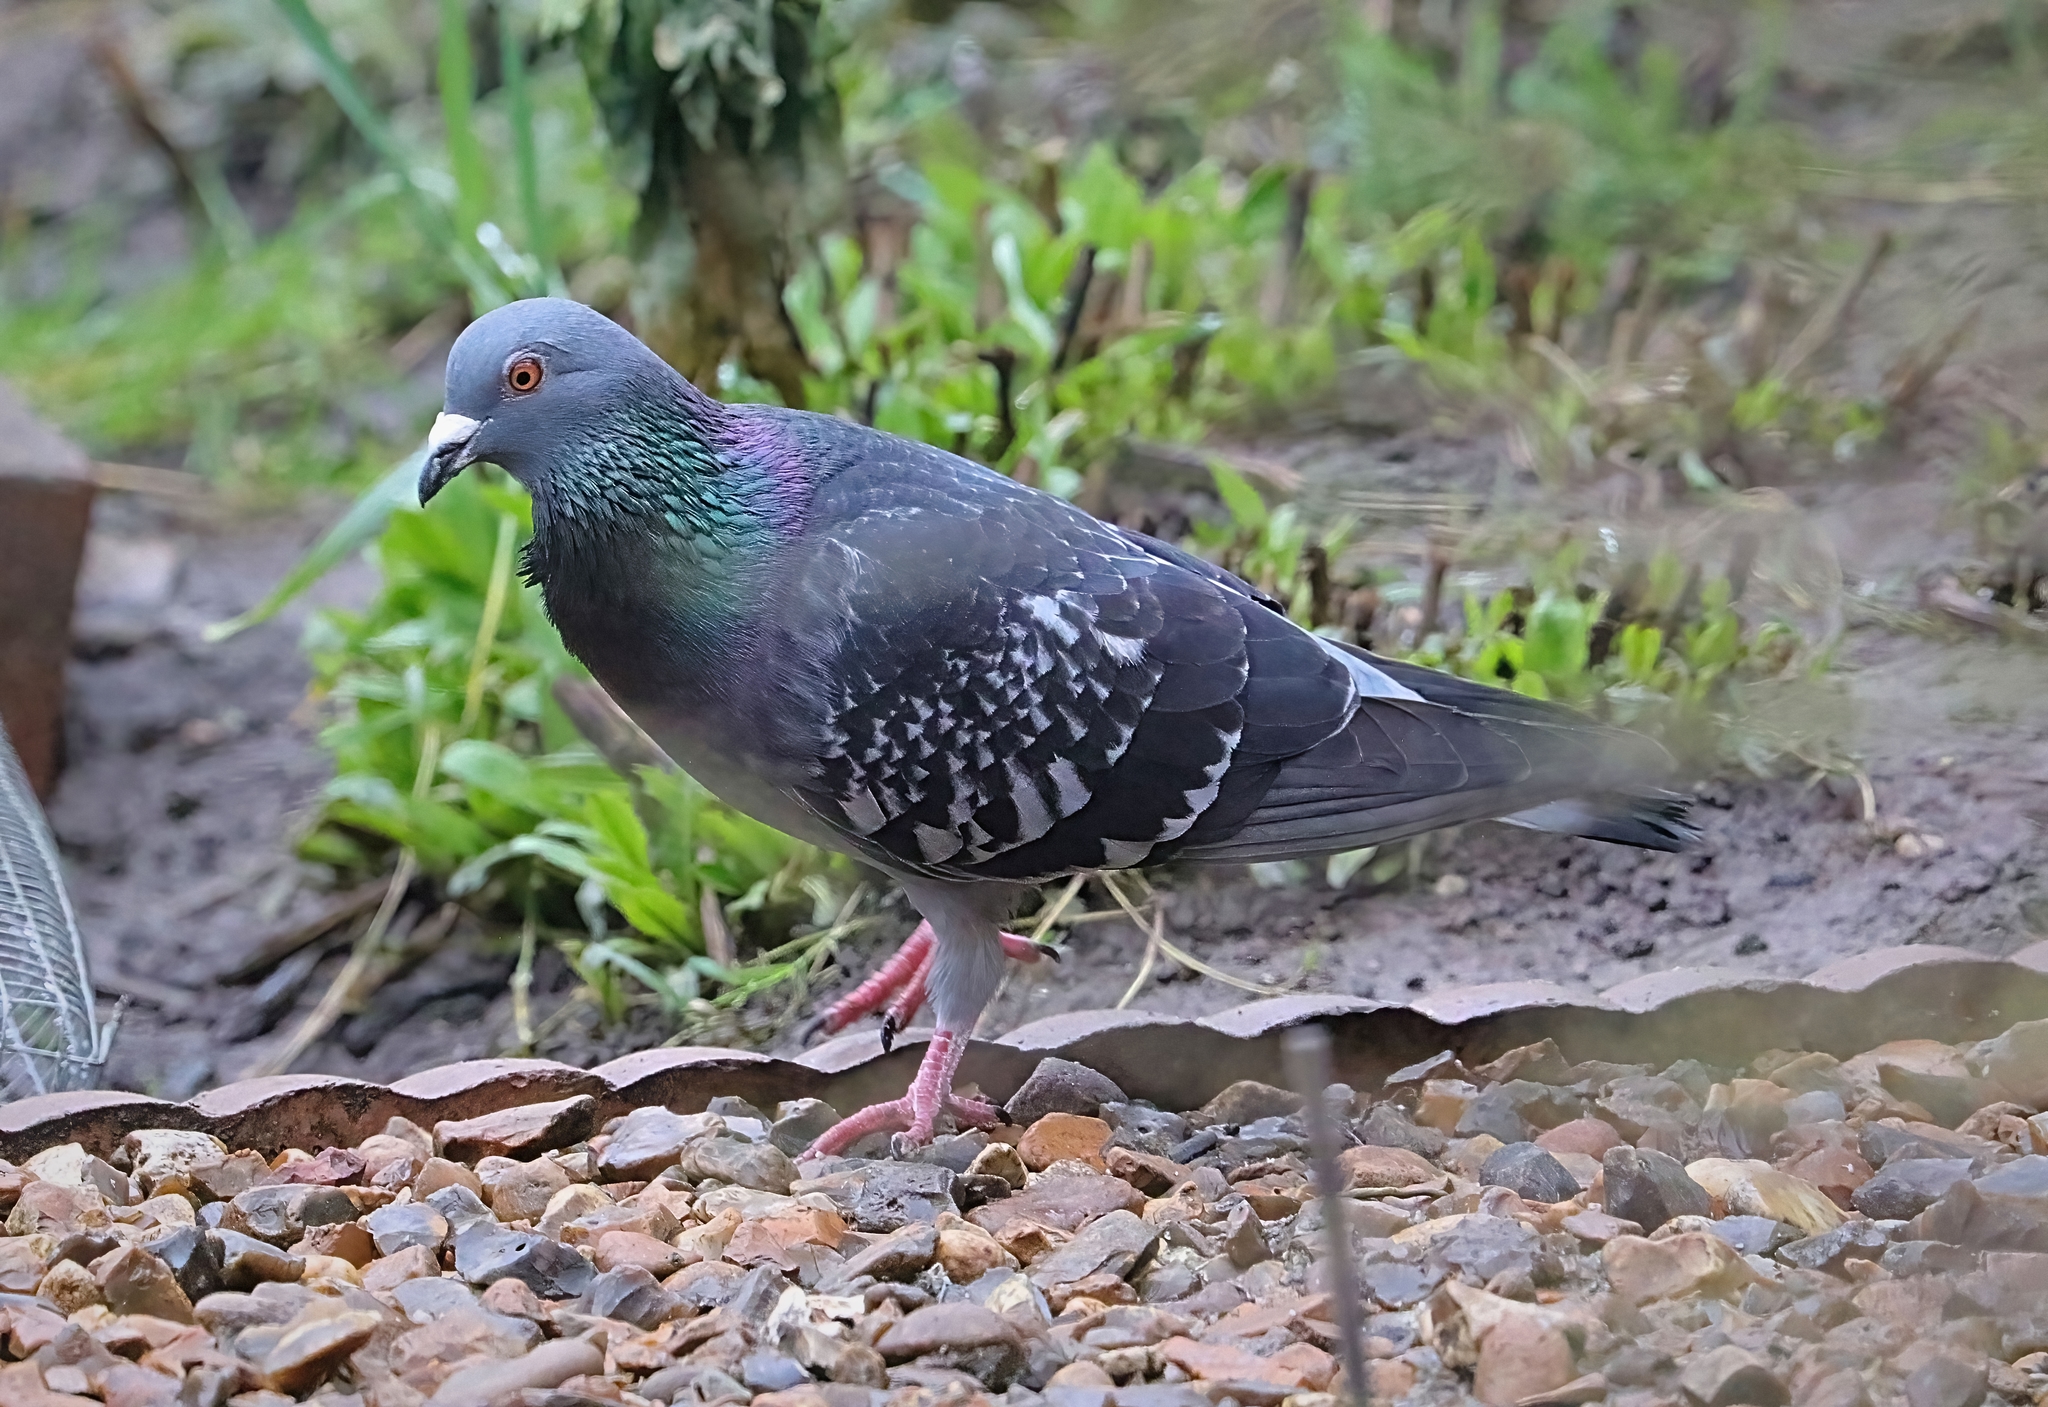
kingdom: Animalia
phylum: Chordata
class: Aves
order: Columbiformes
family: Columbidae
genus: Columba
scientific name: Columba livia
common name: Rock pigeon
